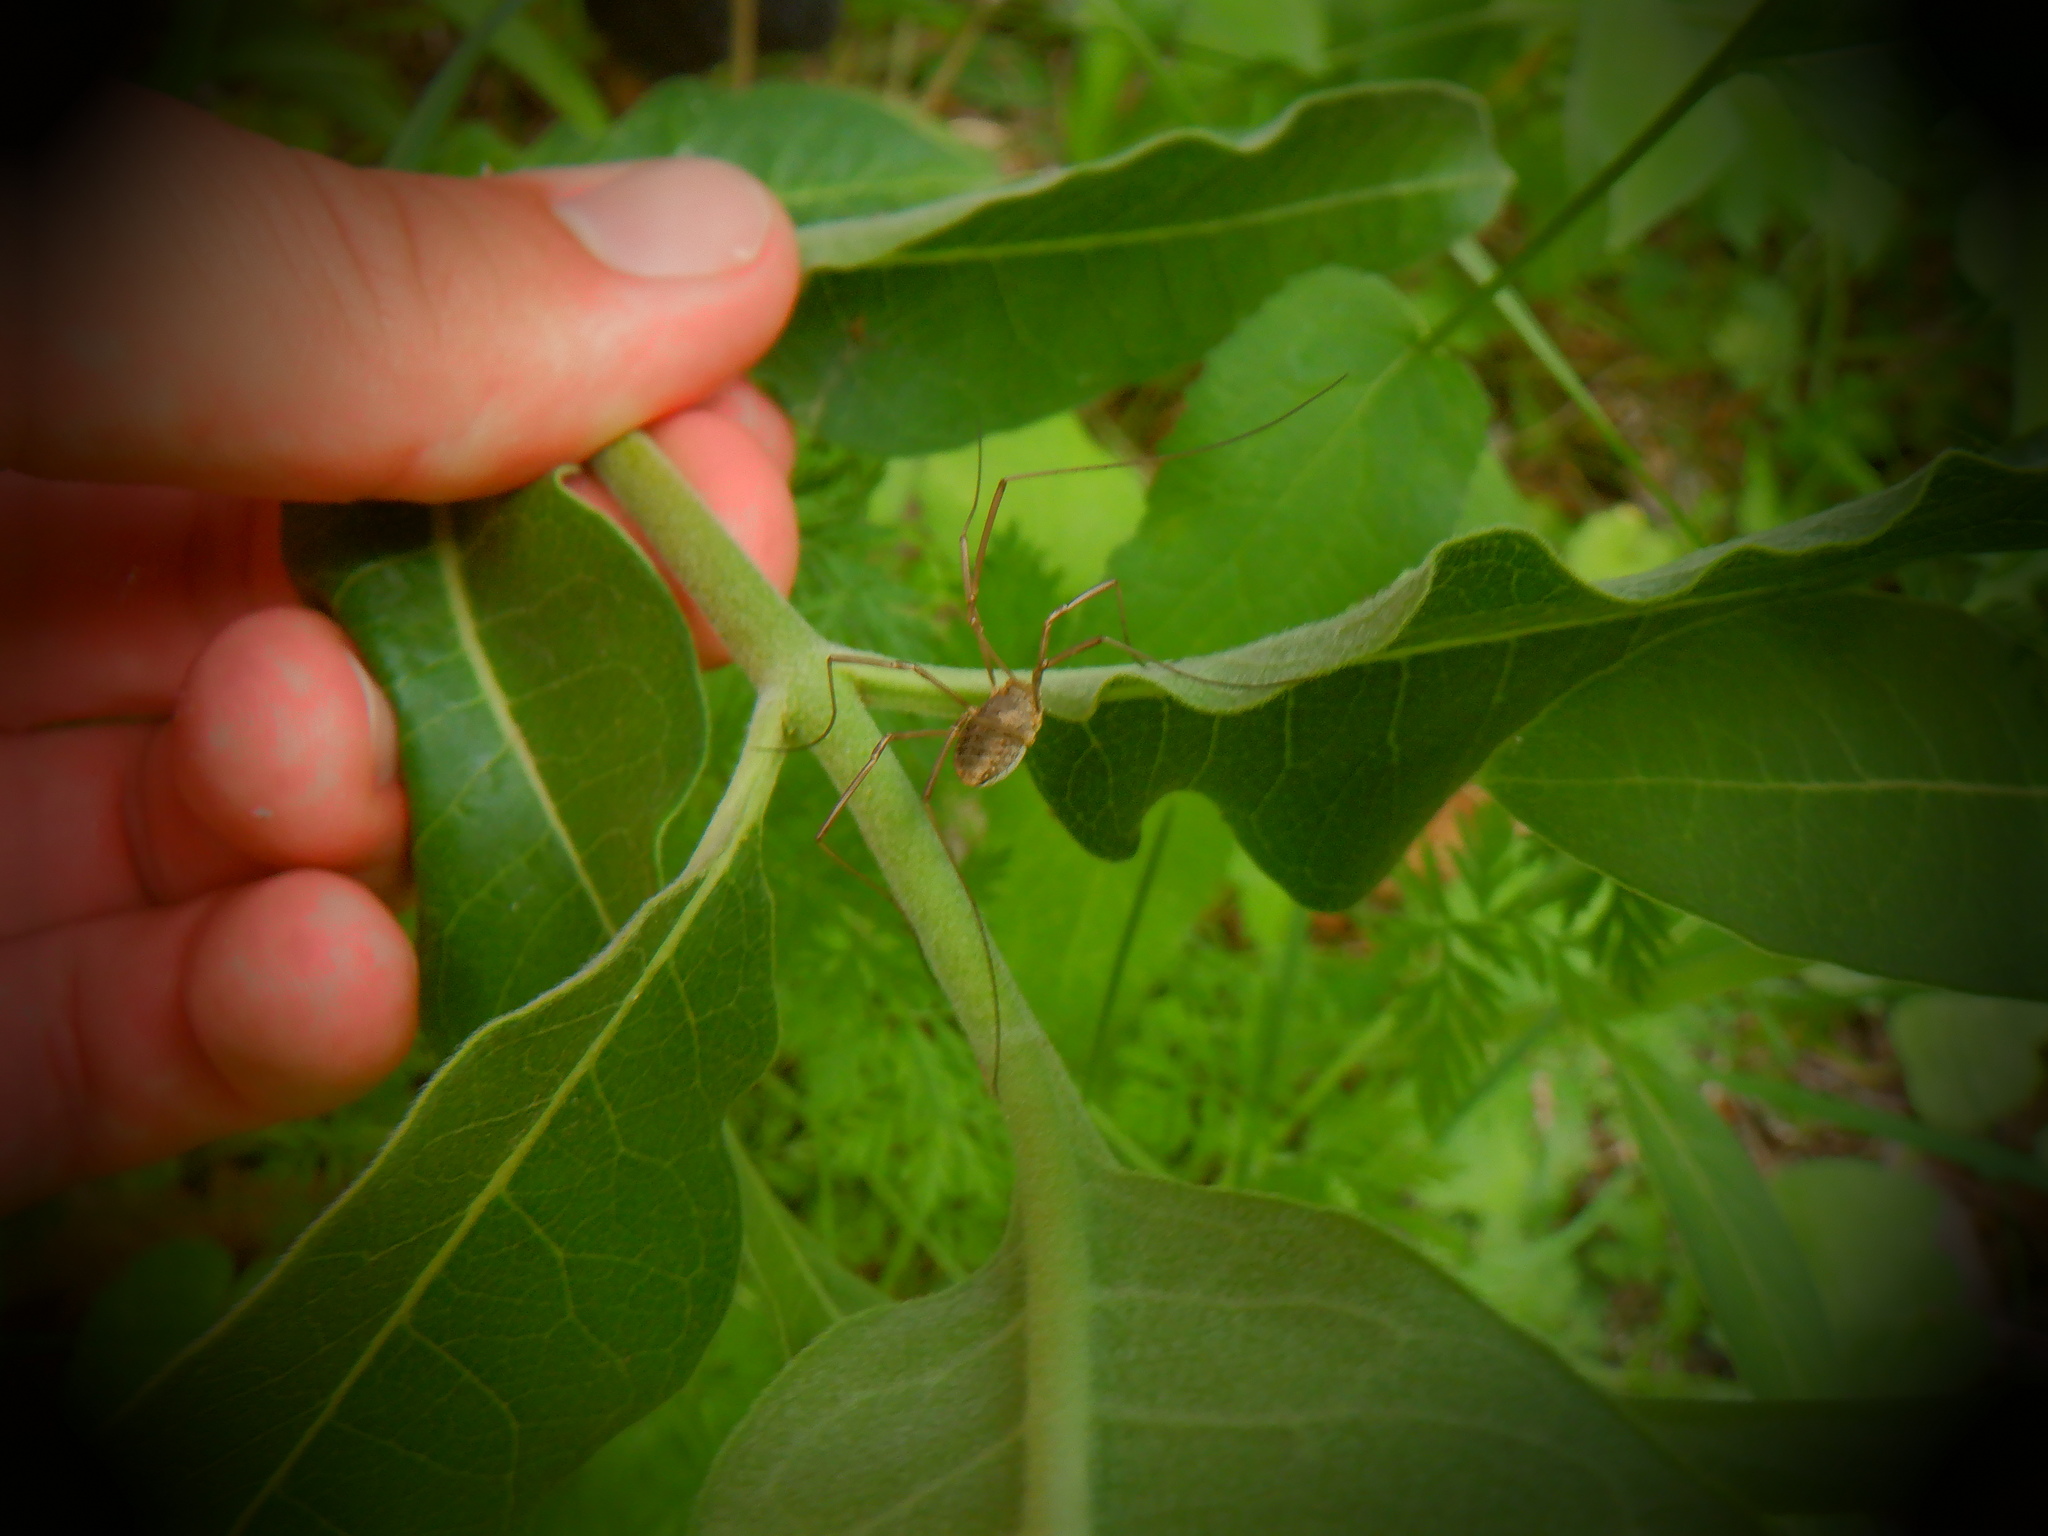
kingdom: Animalia
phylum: Arthropoda
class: Arachnida
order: Opiliones
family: Phalangiidae
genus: Phalangium
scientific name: Phalangium opilio
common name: Daddy longleg
